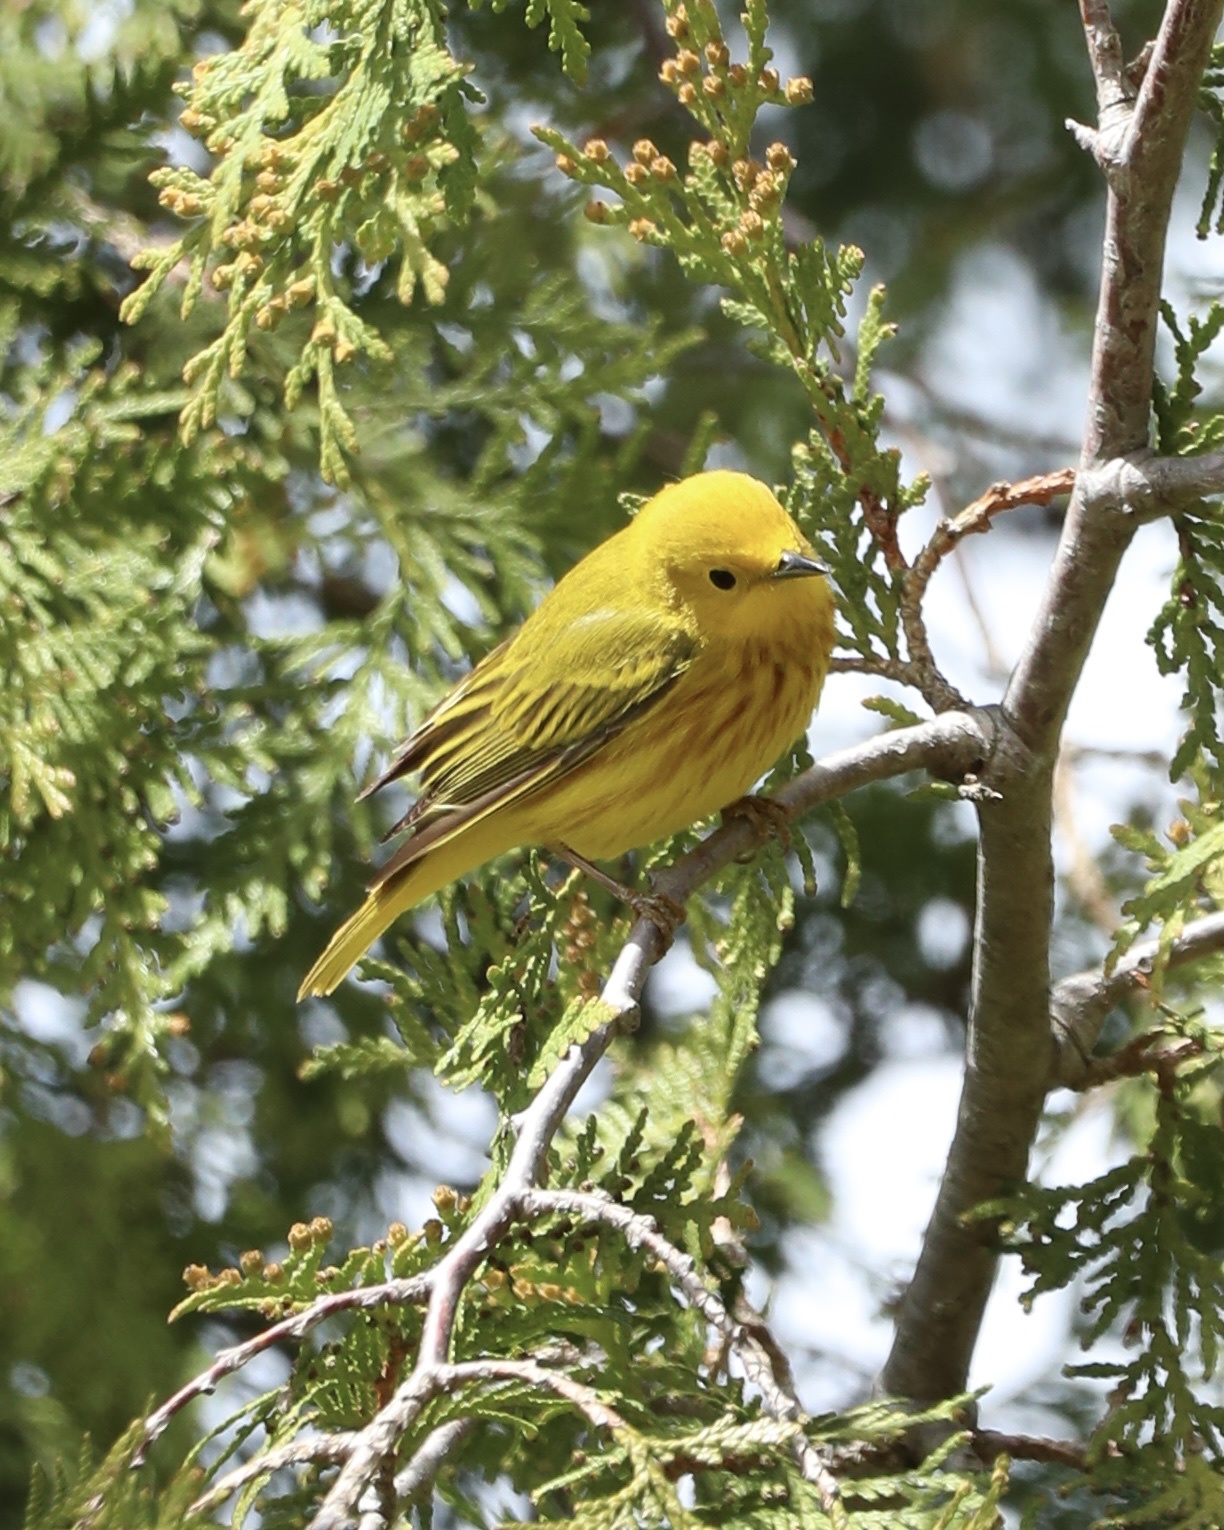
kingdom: Animalia
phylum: Chordata
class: Aves
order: Passeriformes
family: Parulidae
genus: Setophaga
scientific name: Setophaga petechia
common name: Yellow warbler
